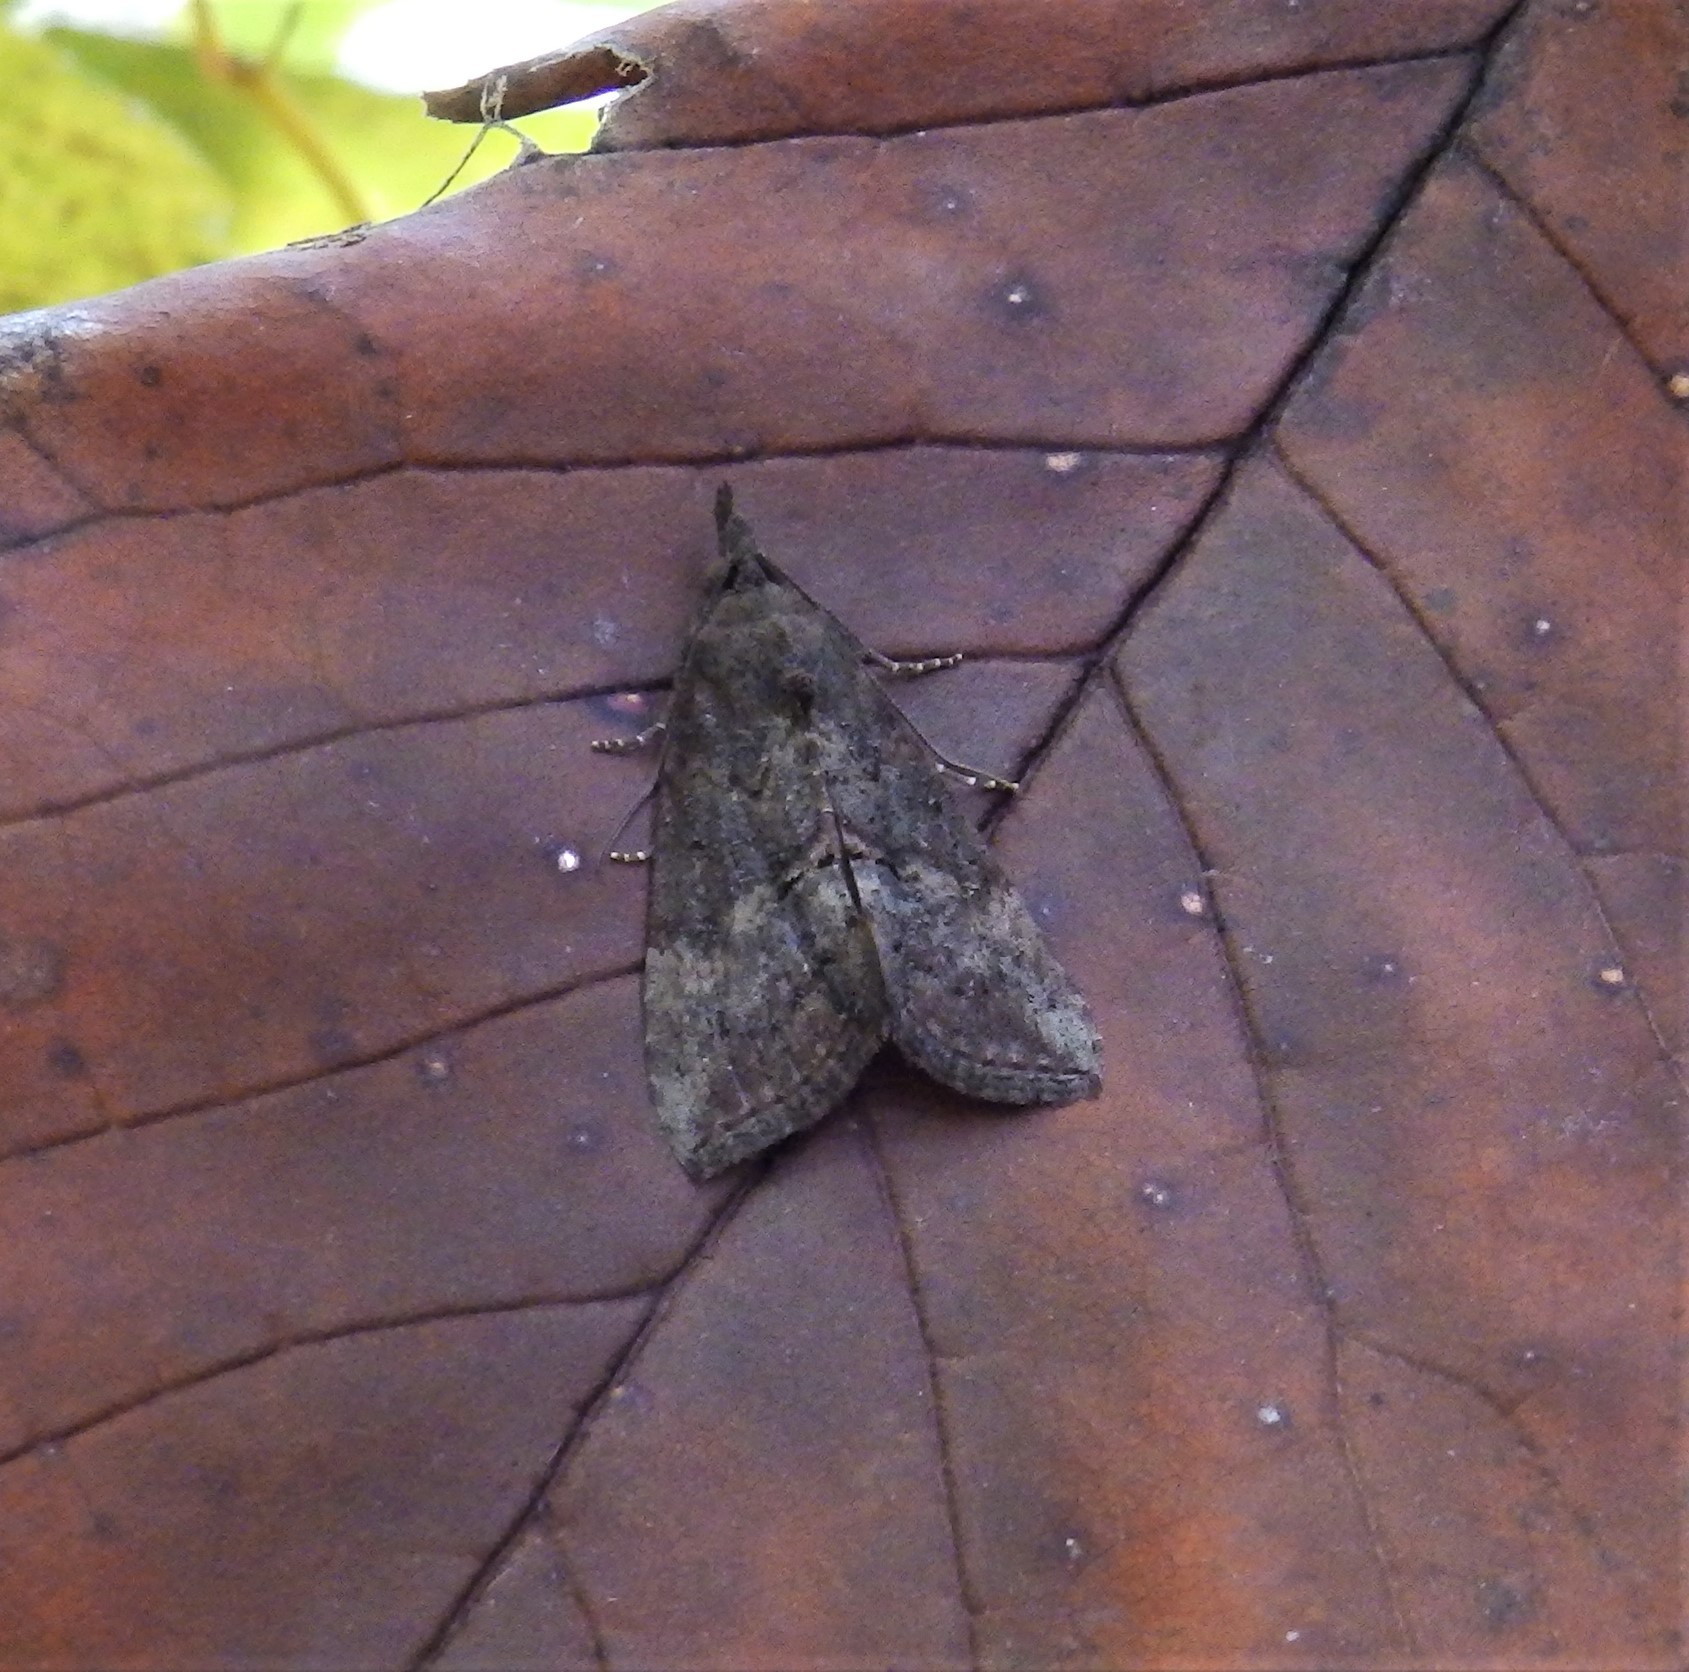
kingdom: Animalia
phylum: Arthropoda
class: Insecta
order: Lepidoptera
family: Erebidae
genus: Hypena
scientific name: Hypena scabra
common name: Green cloverworm
